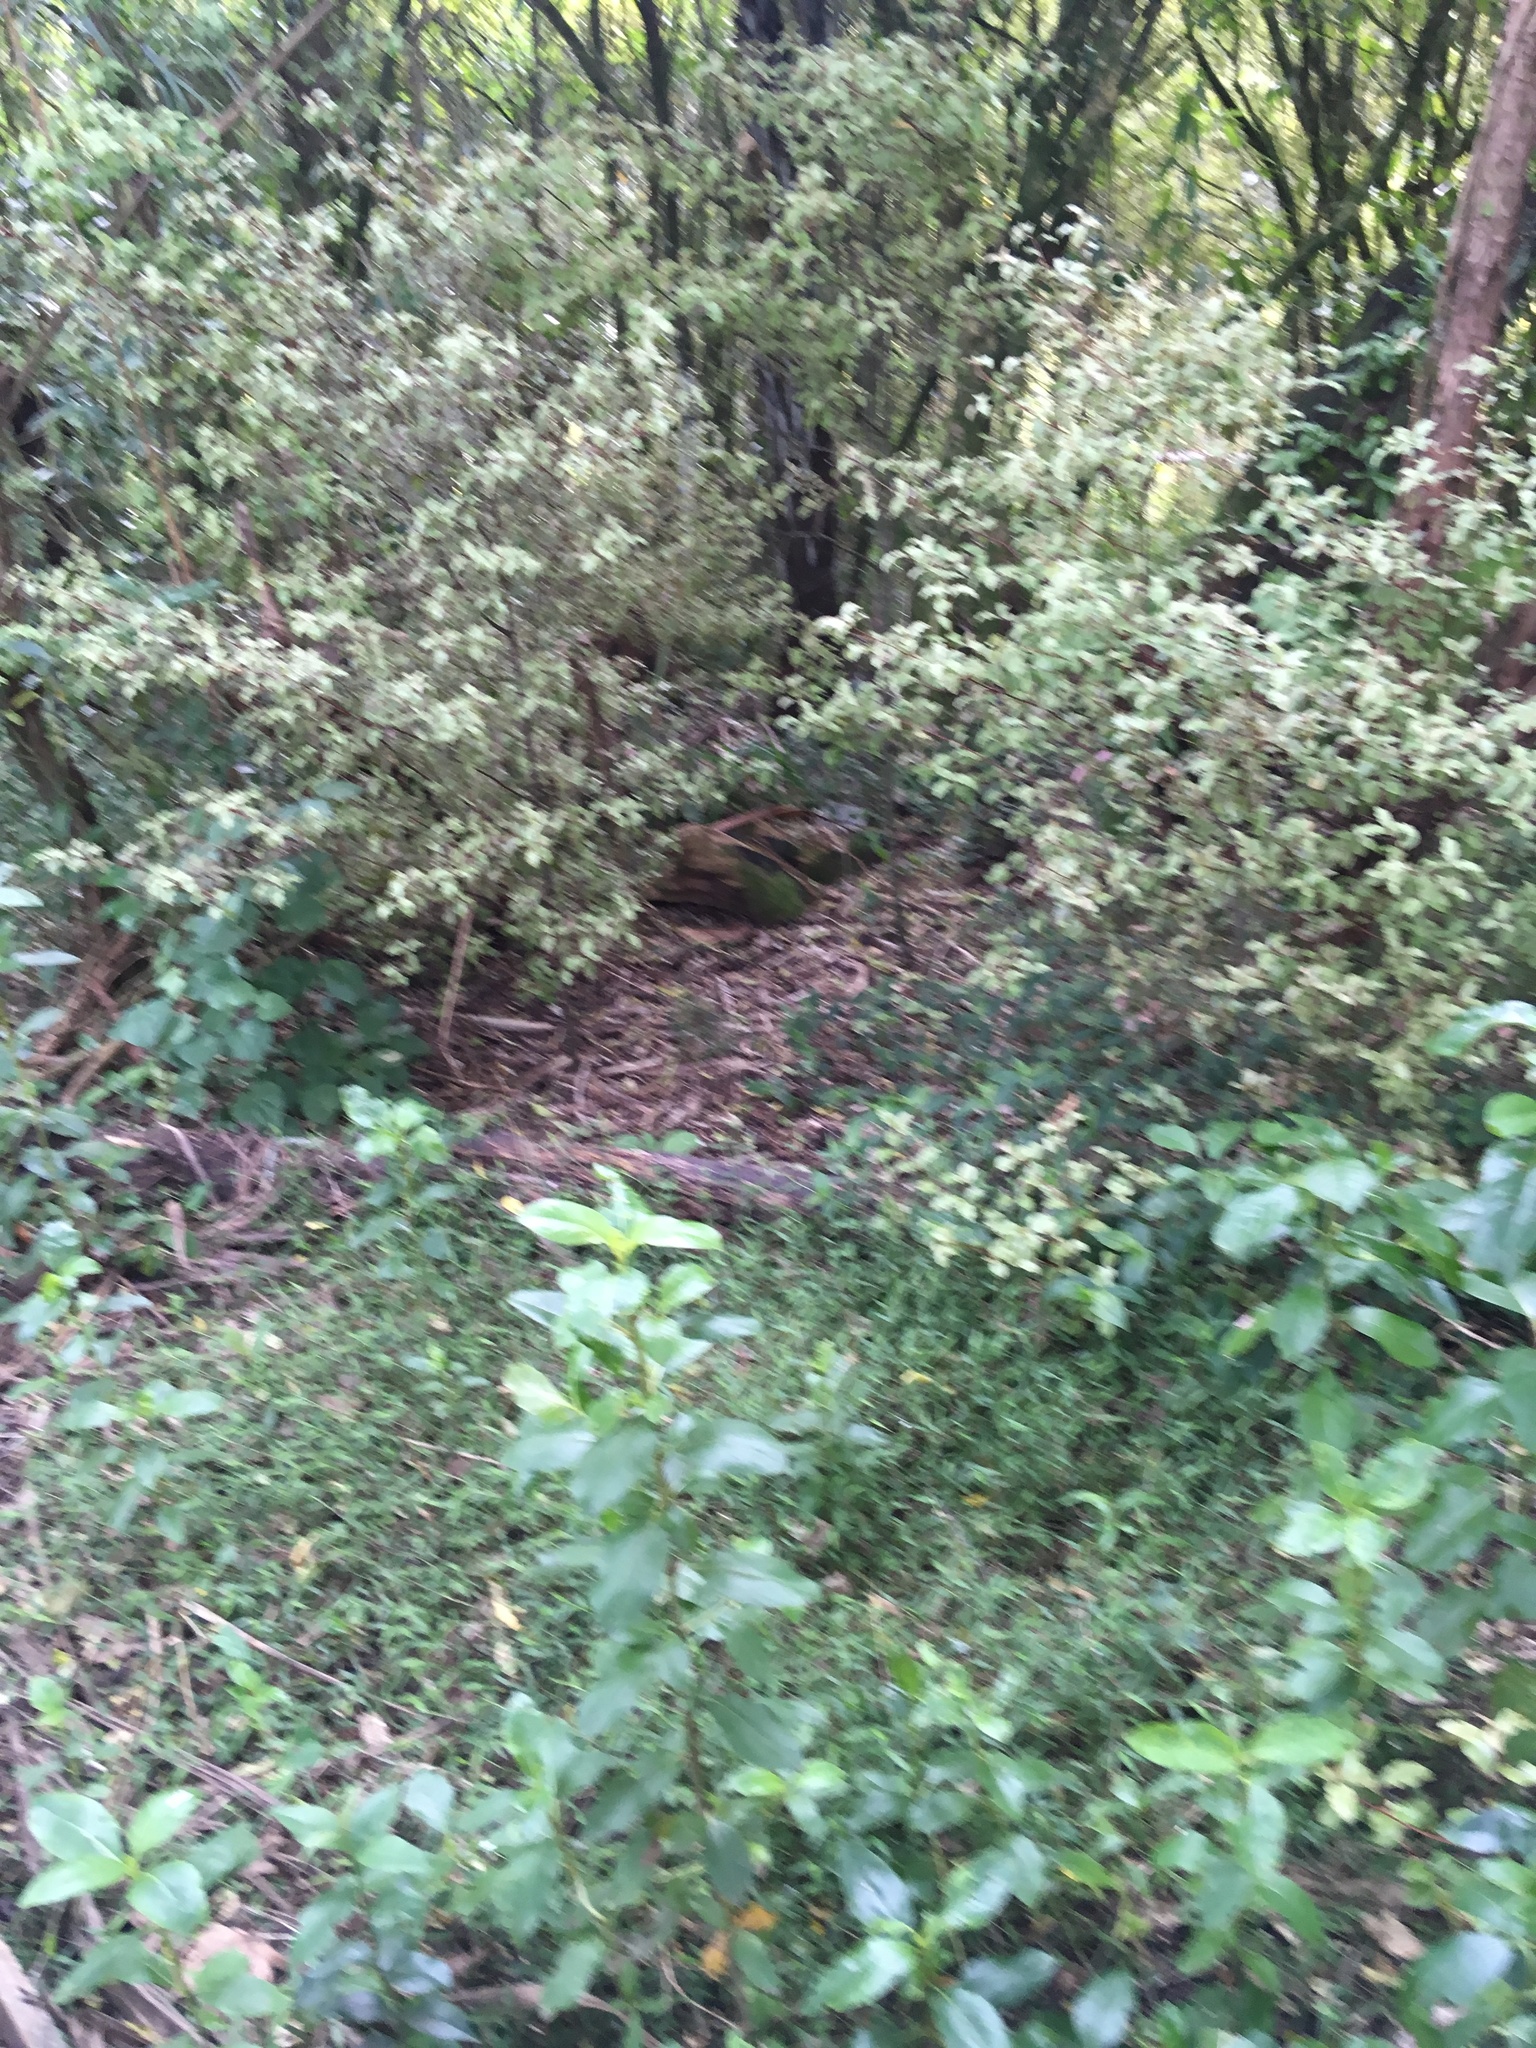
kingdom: Plantae
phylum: Tracheophyta
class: Magnoliopsida
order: Gentianales
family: Rubiaceae
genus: Coprosma
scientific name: Coprosma robusta
